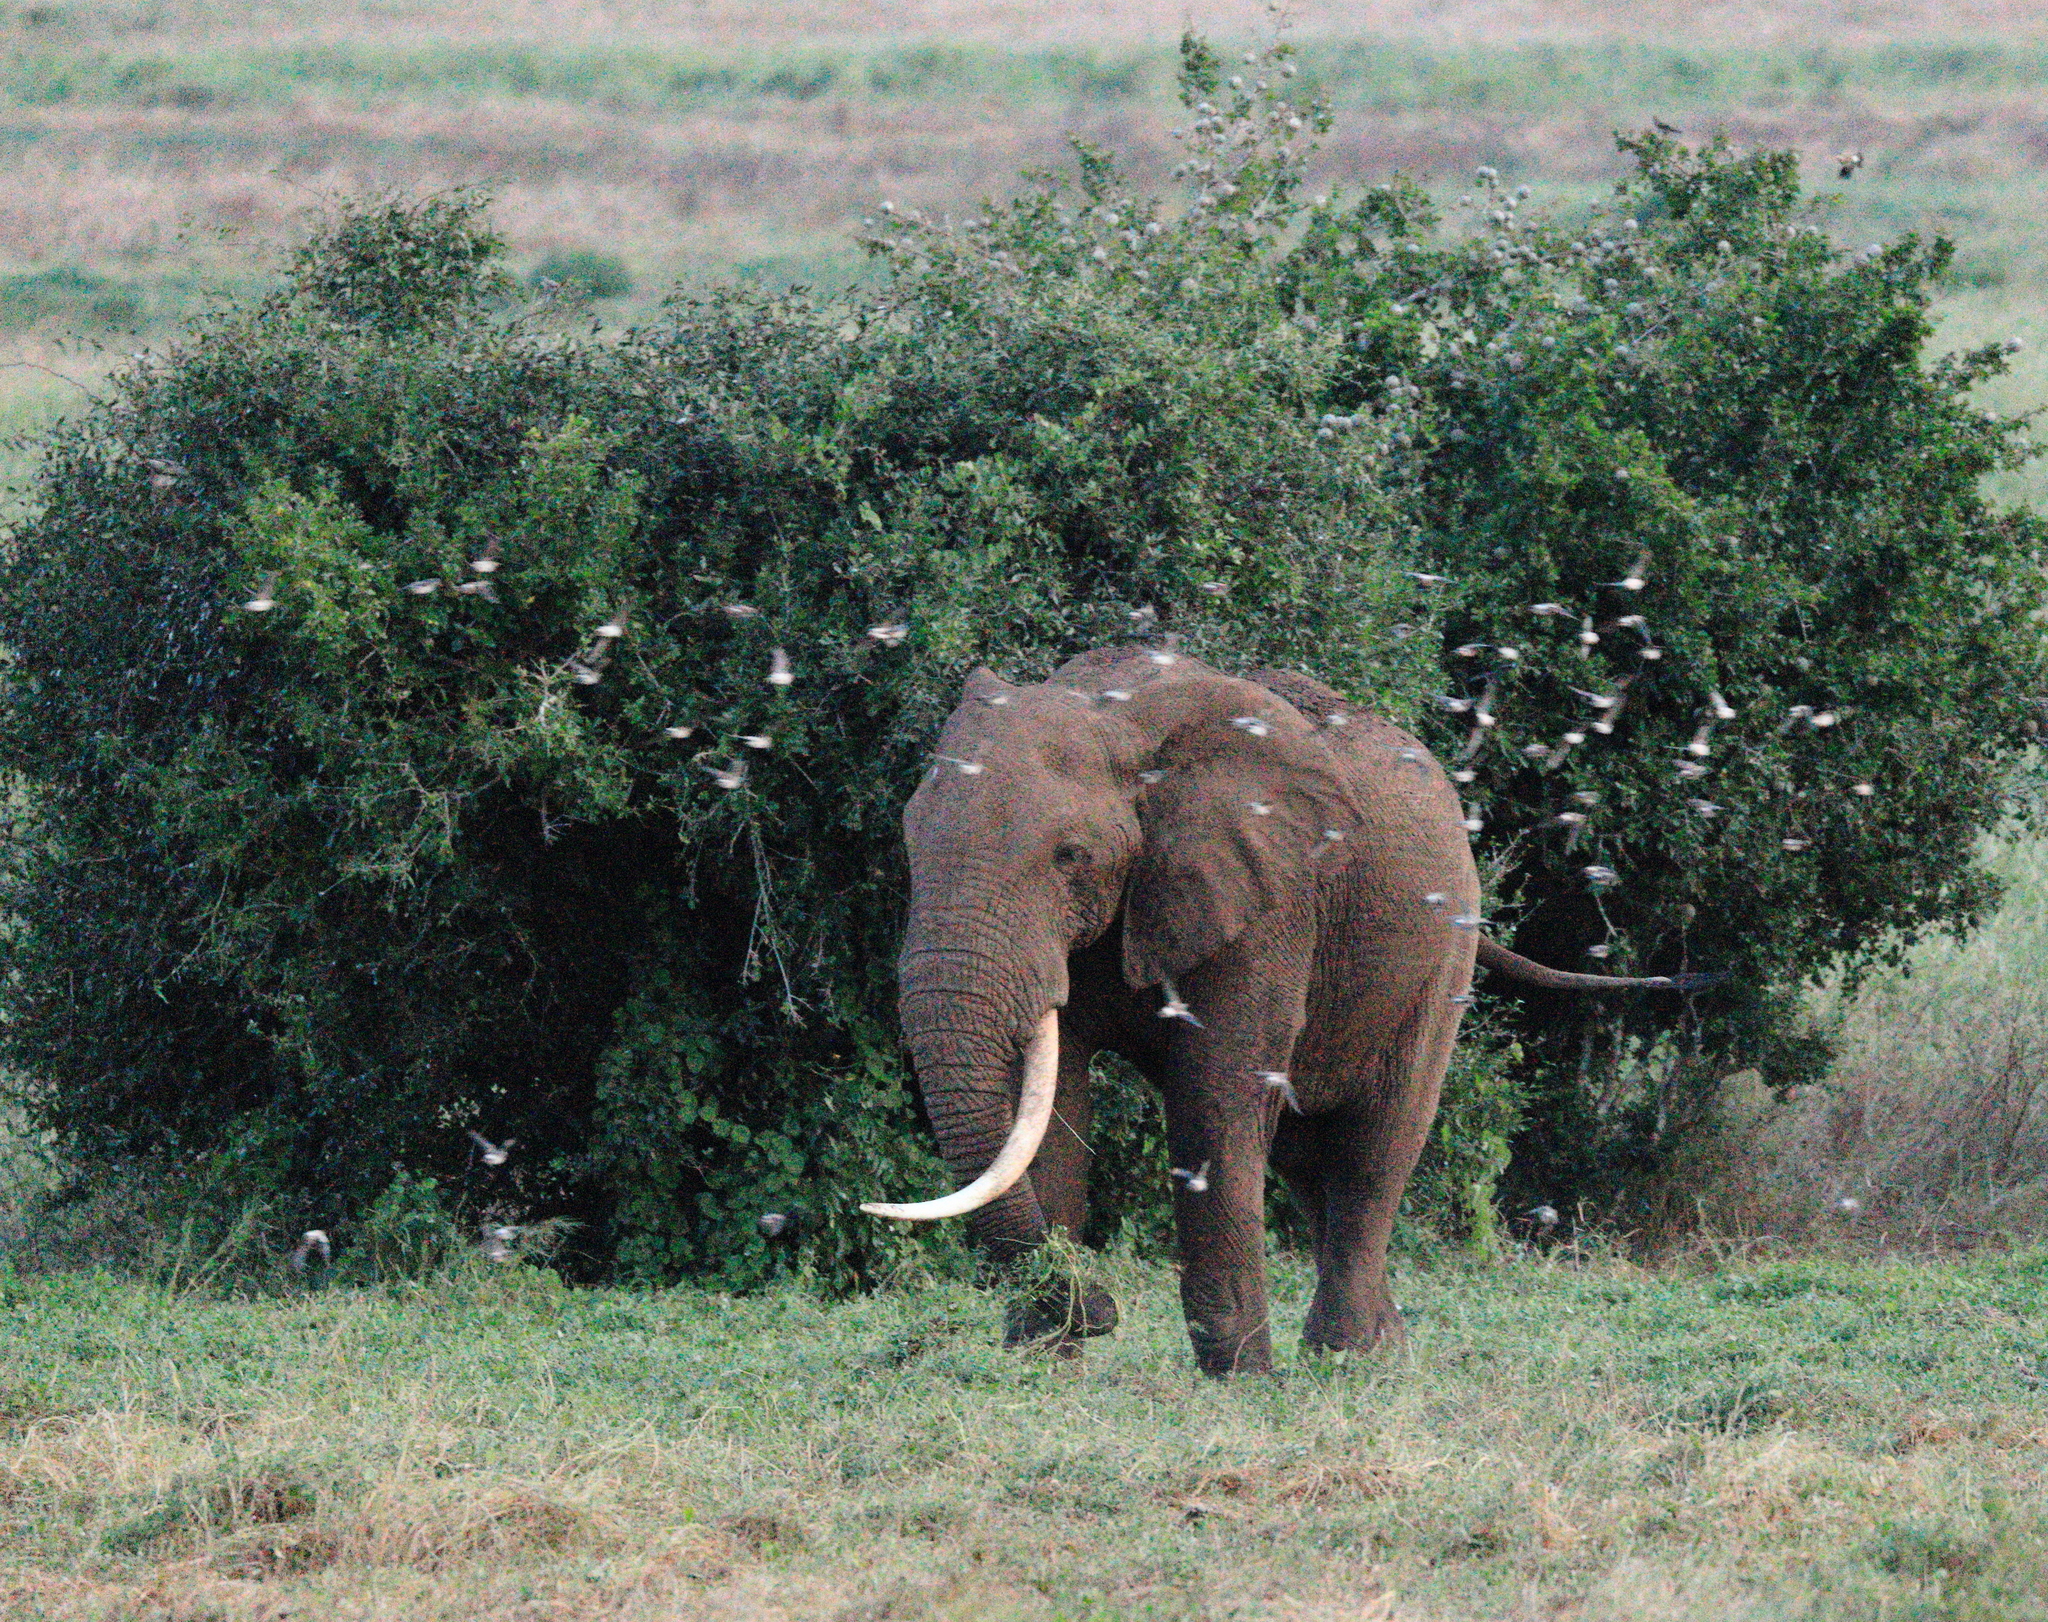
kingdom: Animalia
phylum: Chordata
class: Mammalia
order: Proboscidea
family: Elephantidae
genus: Loxodonta
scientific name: Loxodonta africana
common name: African elephant
